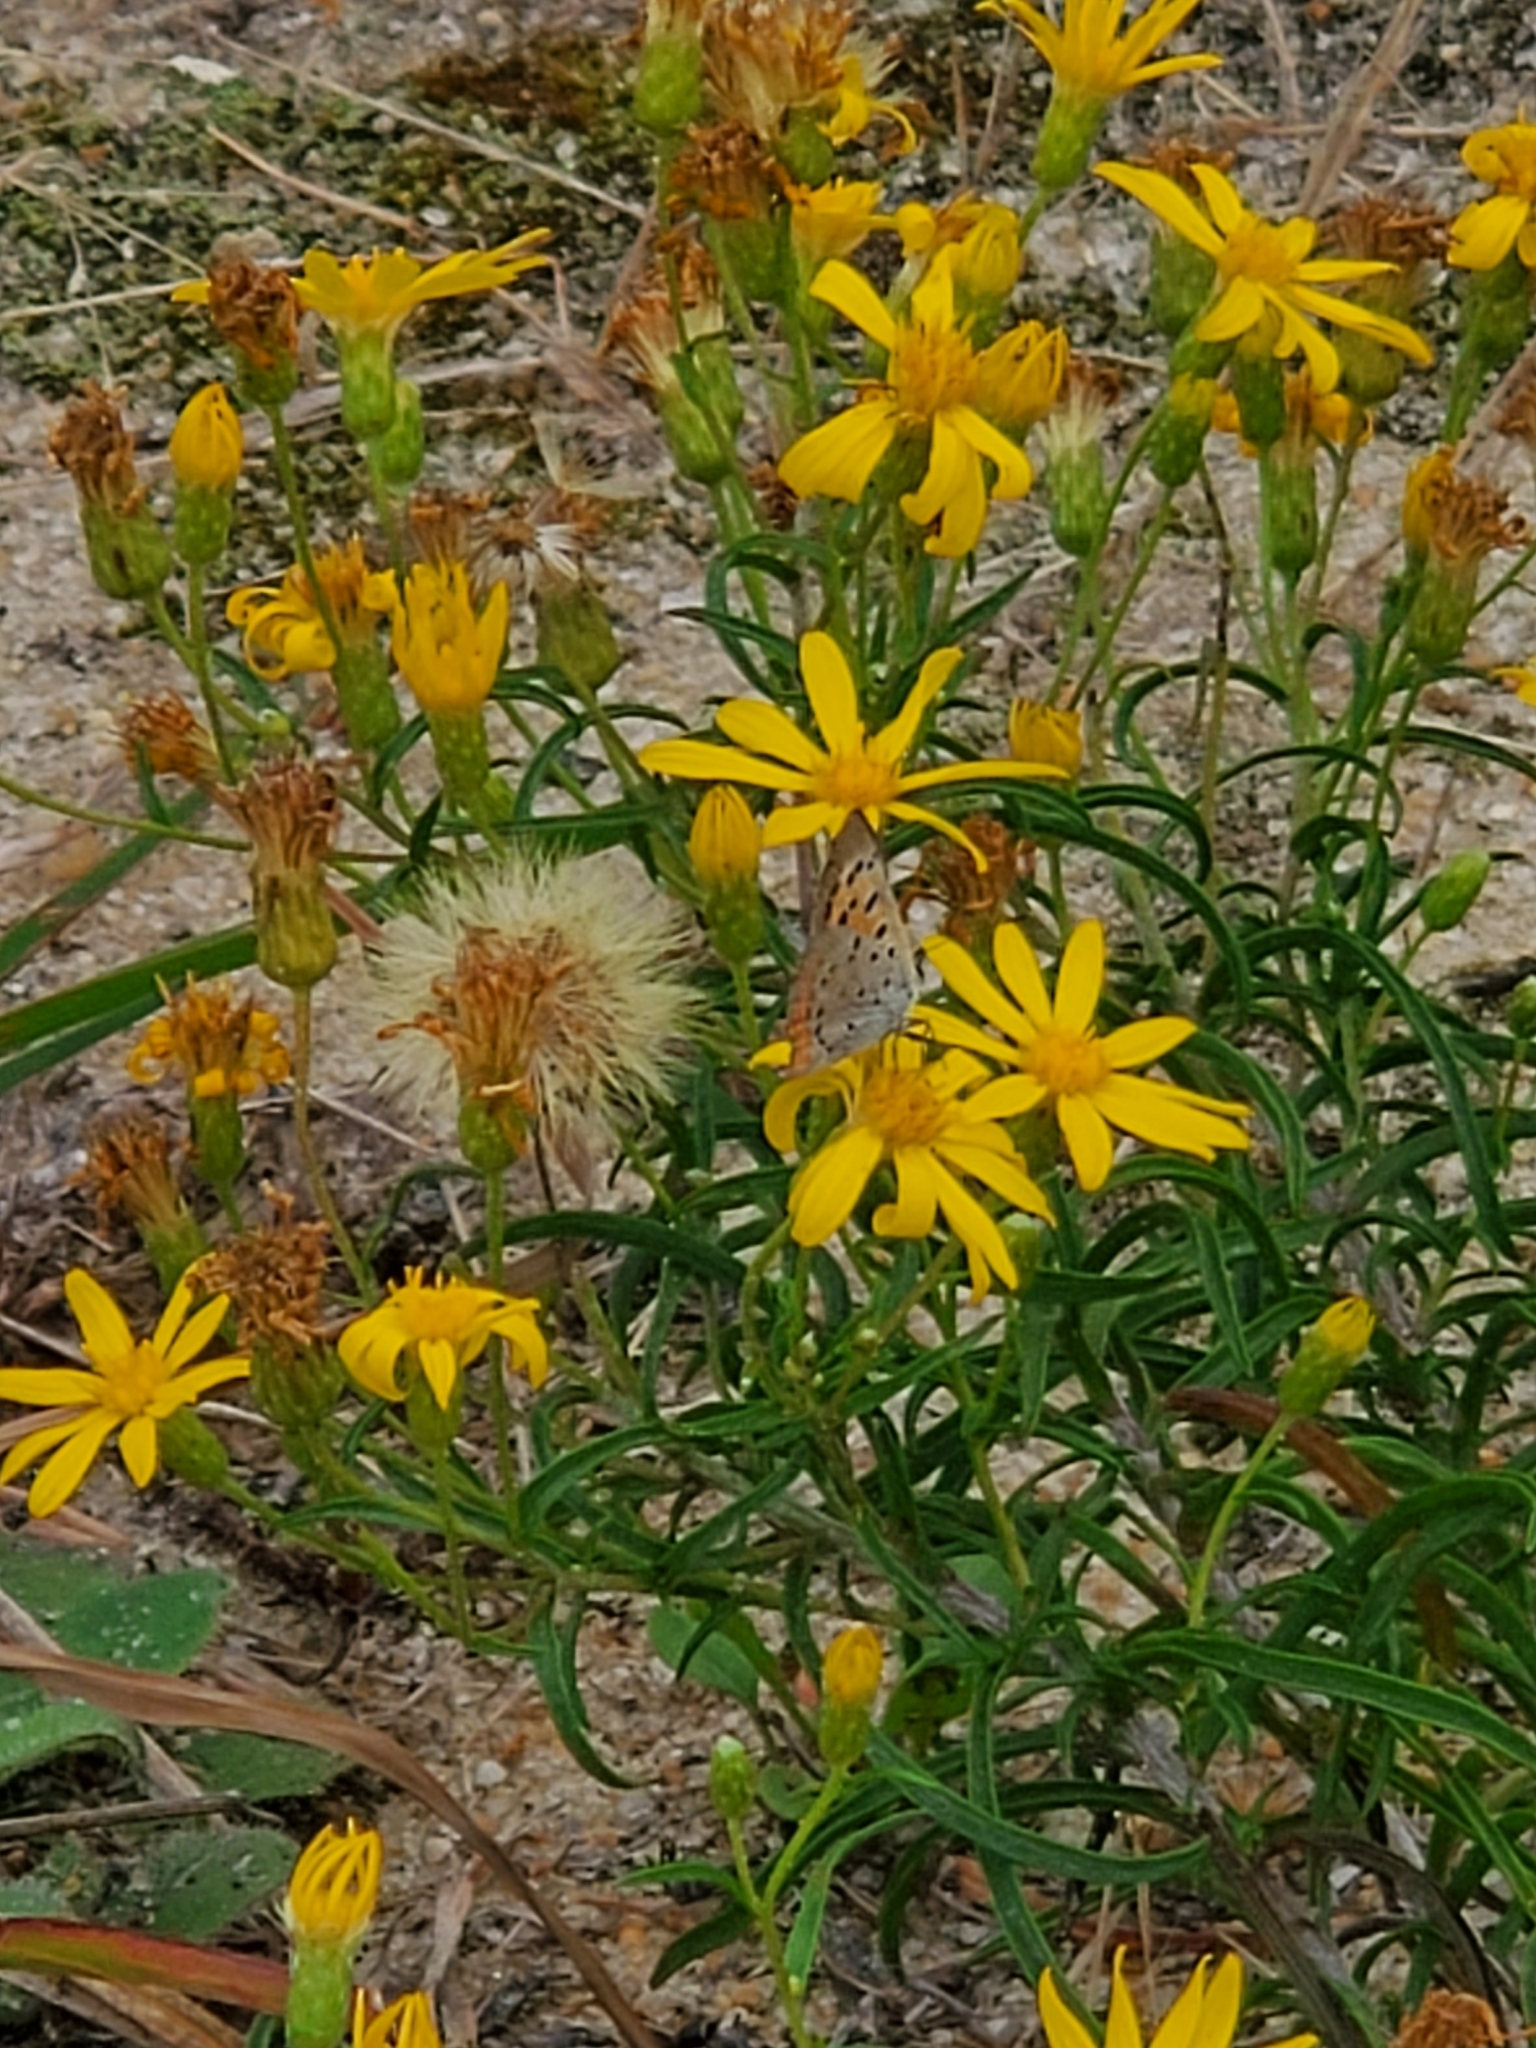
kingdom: Plantae
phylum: Tracheophyta
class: Magnoliopsida
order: Asterales
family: Asteraceae
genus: Pityopsis
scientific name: Pityopsis falcata
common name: Sickle-leaved goldenaster
